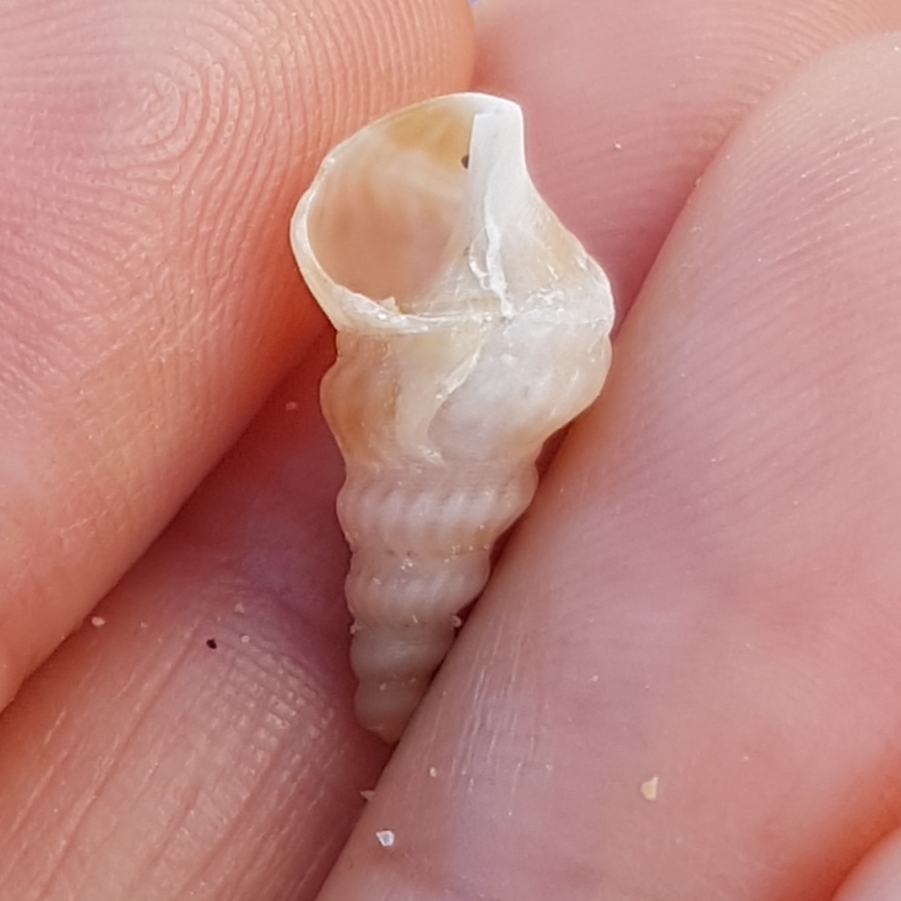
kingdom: Animalia
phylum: Mollusca
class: Gastropoda
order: Littorinimorpha
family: Aporrhaidae
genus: Aporrhais
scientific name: Aporrhais pespelecani
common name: Common pelican’s foot
